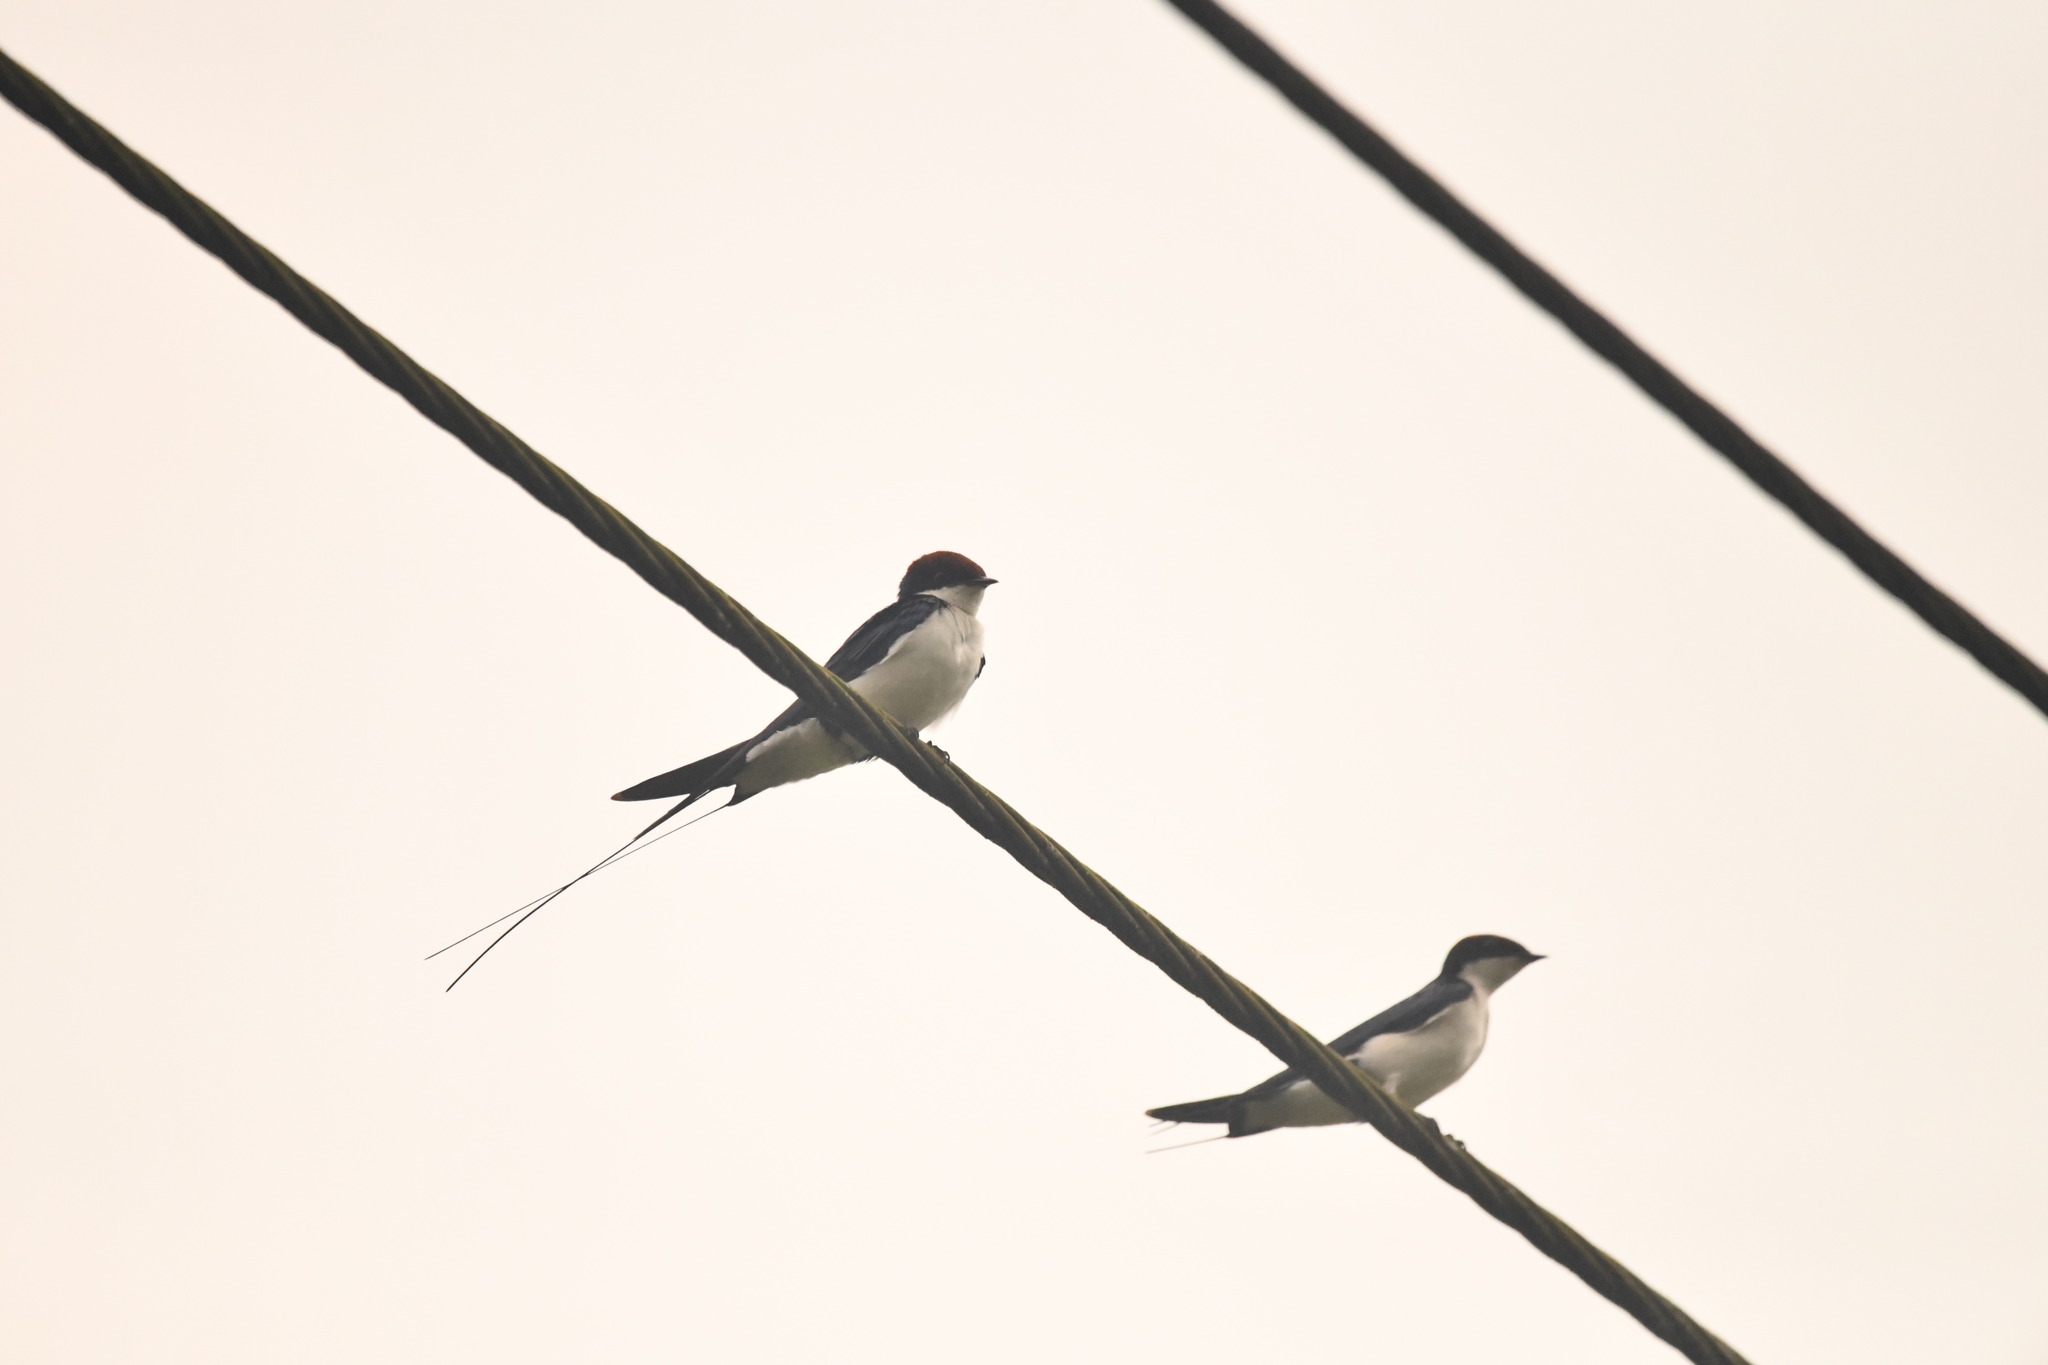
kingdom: Animalia
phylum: Chordata
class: Aves
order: Passeriformes
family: Hirundinidae
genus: Hirundo
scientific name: Hirundo smithii
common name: Wire-tailed swallow
